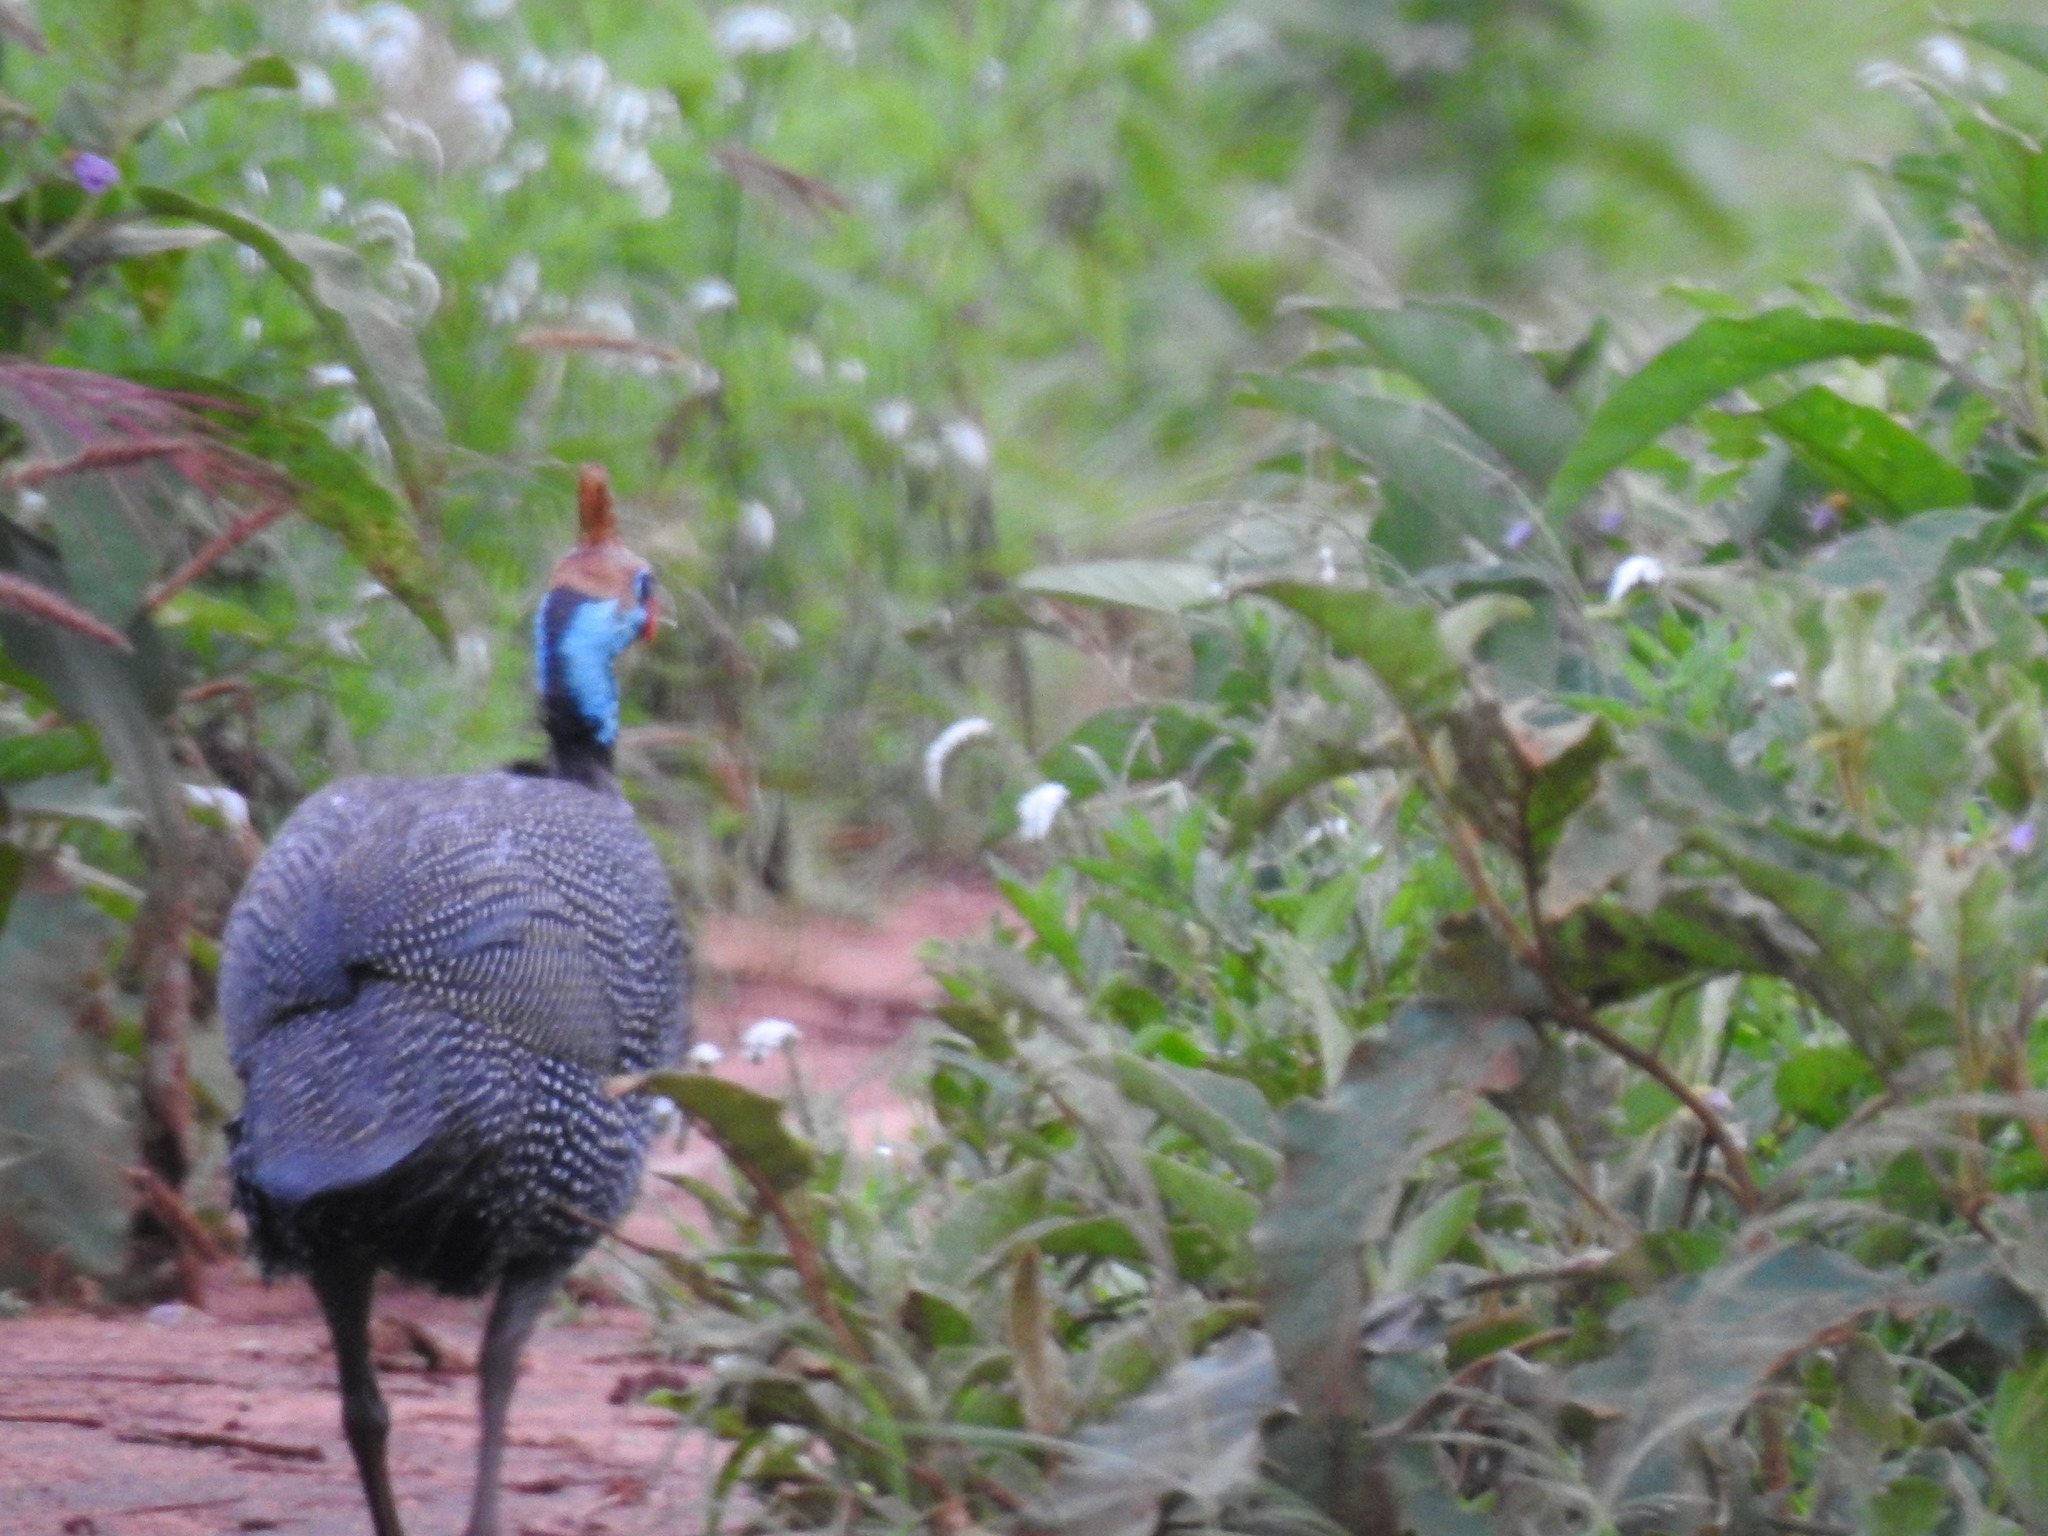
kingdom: Animalia
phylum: Chordata
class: Aves
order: Galliformes
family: Numididae
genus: Numida
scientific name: Numida meleagris
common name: Helmeted guineafowl
